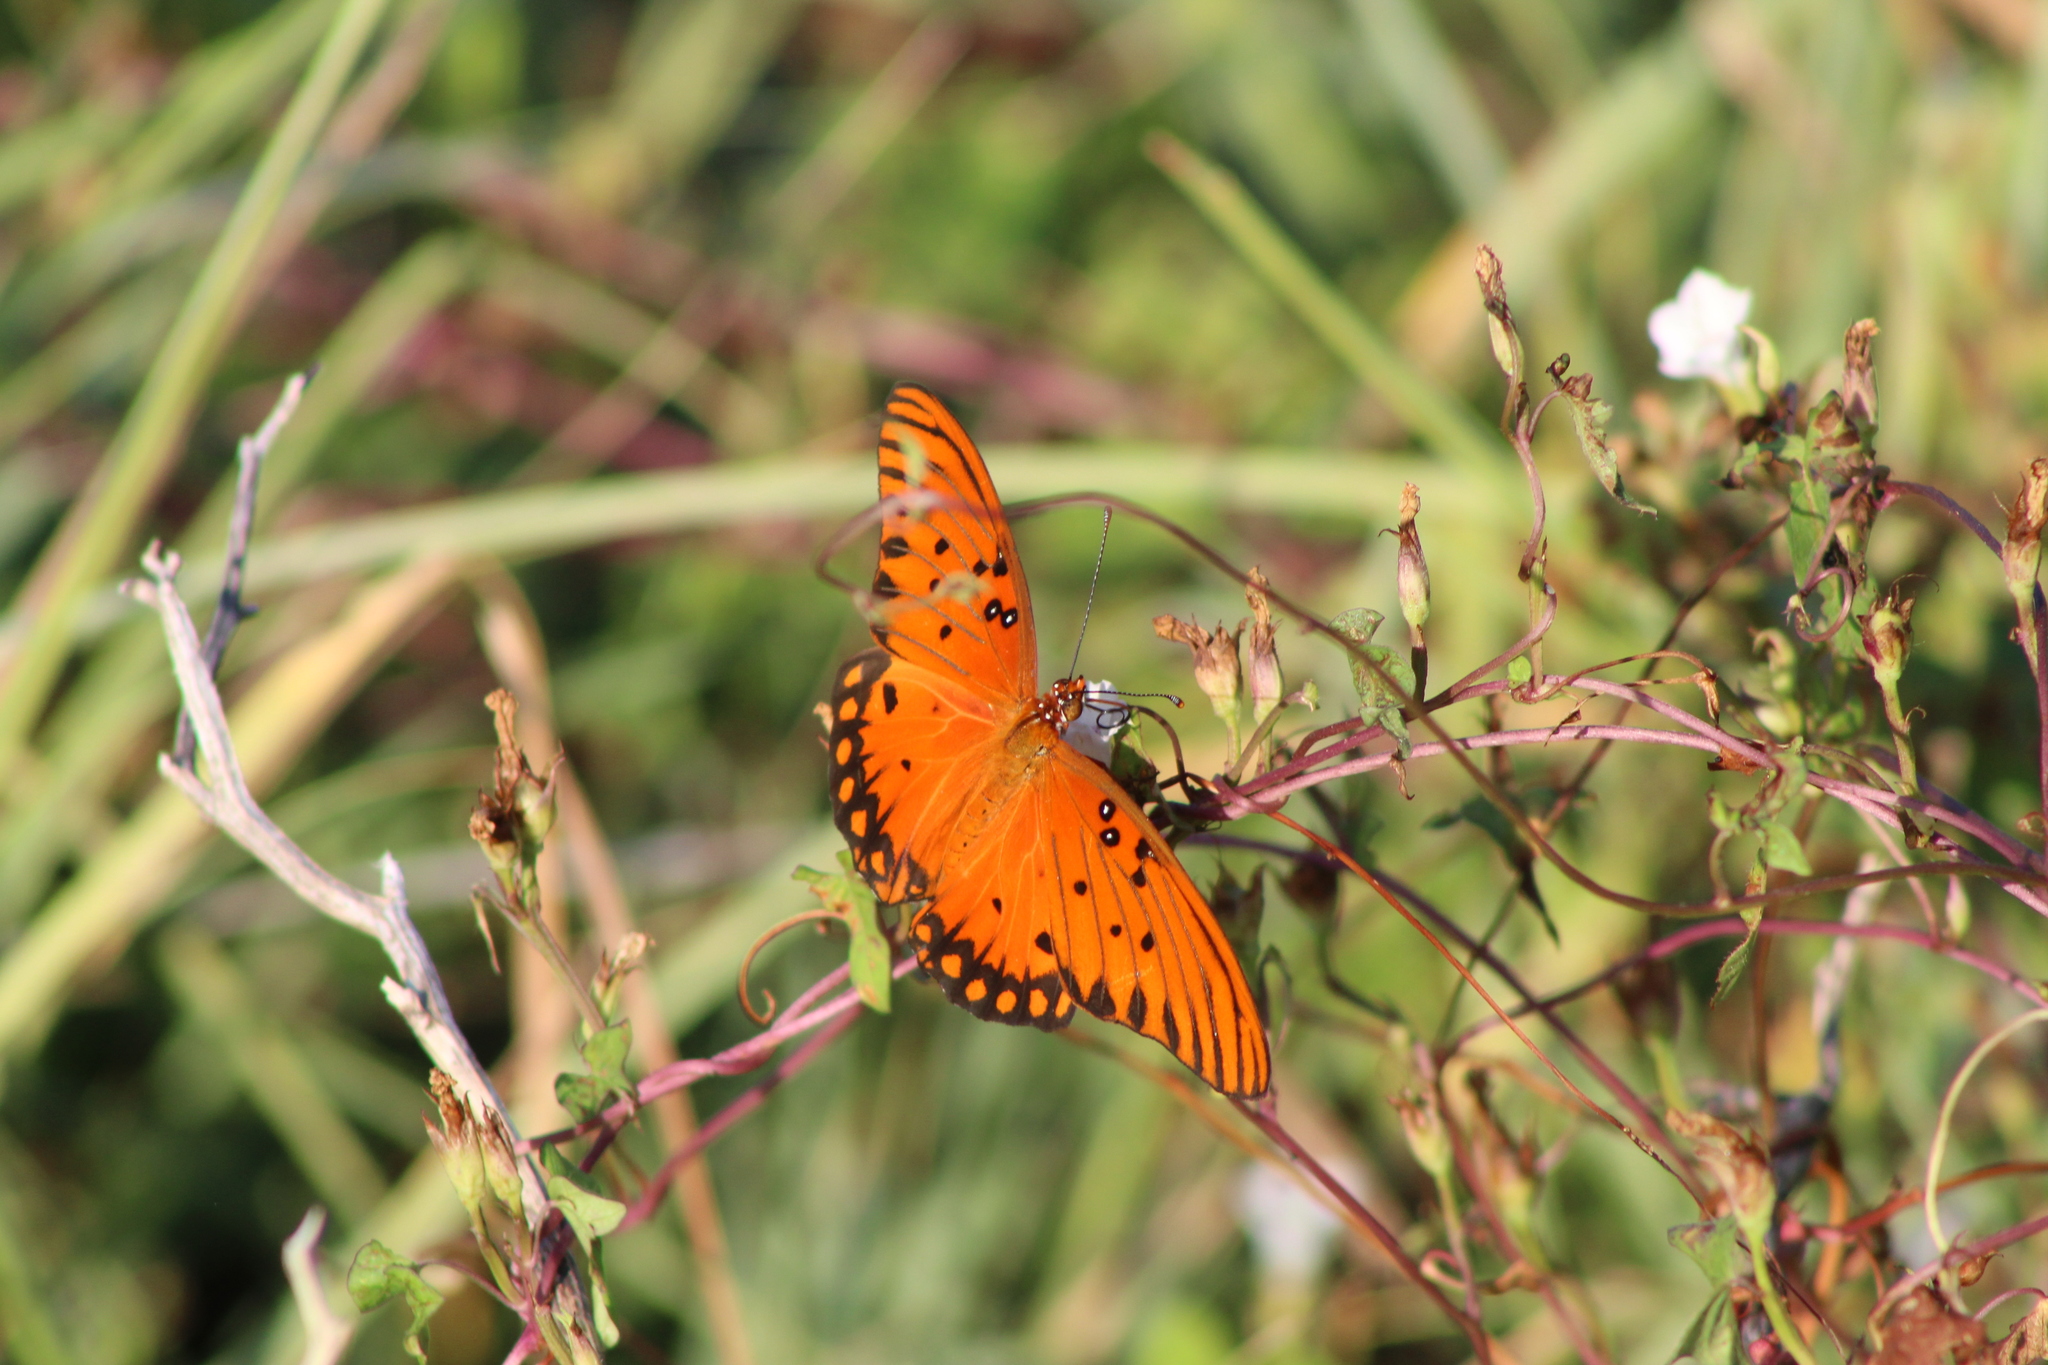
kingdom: Animalia
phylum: Arthropoda
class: Insecta
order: Lepidoptera
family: Nymphalidae
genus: Dione
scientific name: Dione vanillae
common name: Gulf fritillary
